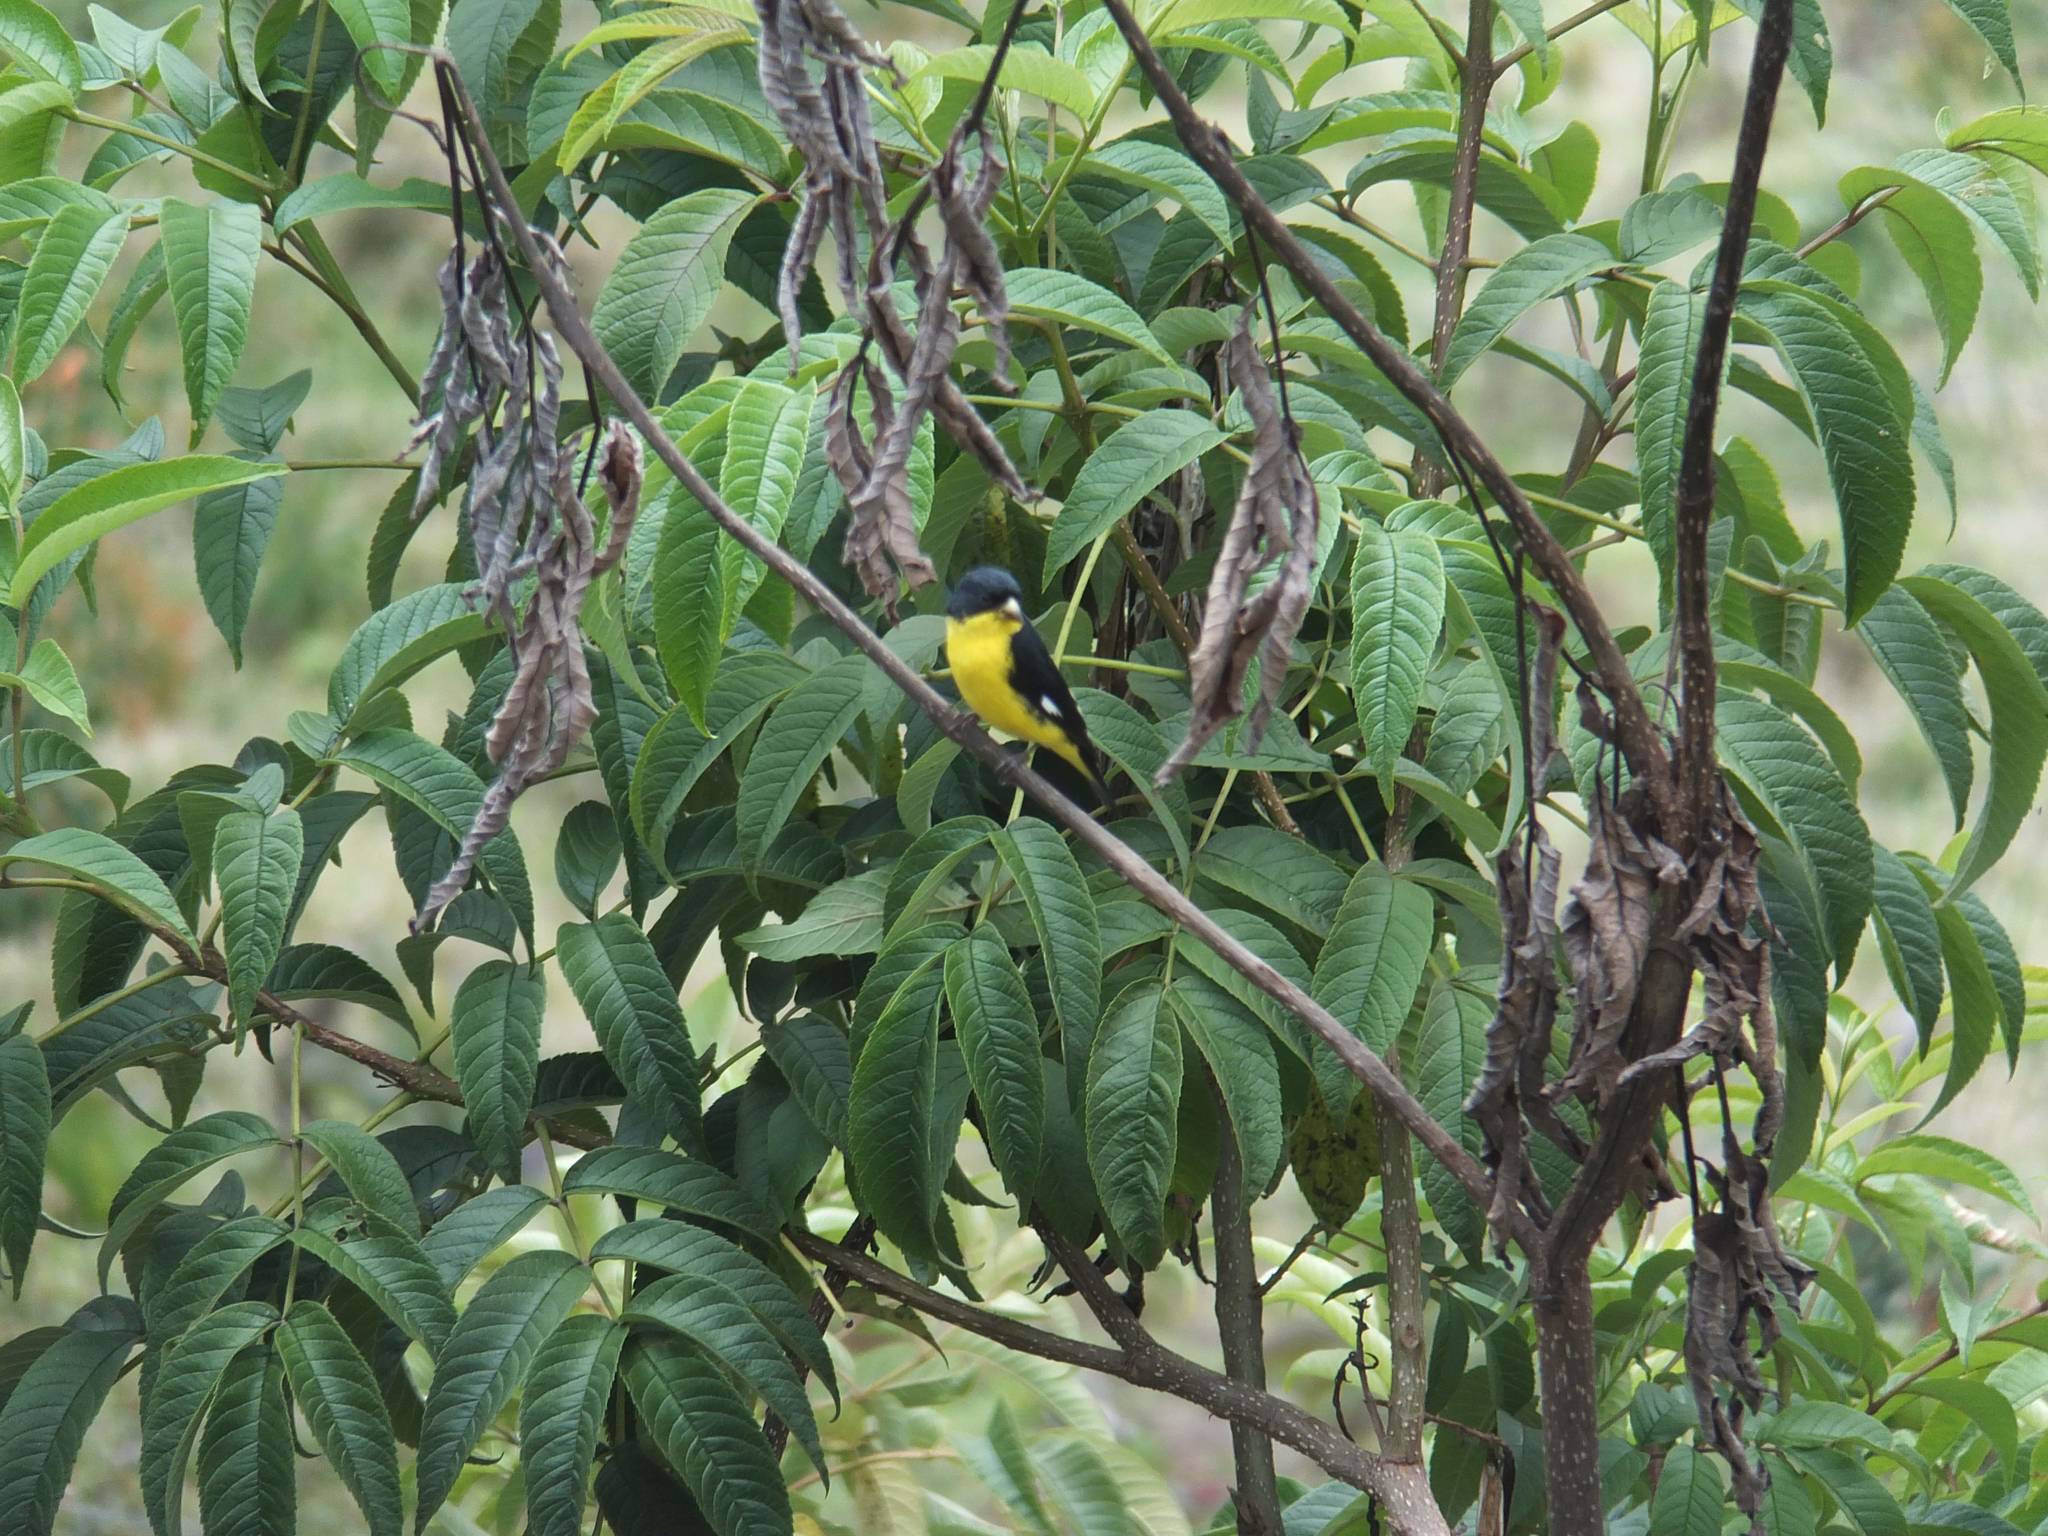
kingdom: Animalia
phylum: Chordata
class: Aves
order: Passeriformes
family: Fringillidae
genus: Spinus
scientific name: Spinus psaltria
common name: Lesser goldfinch
